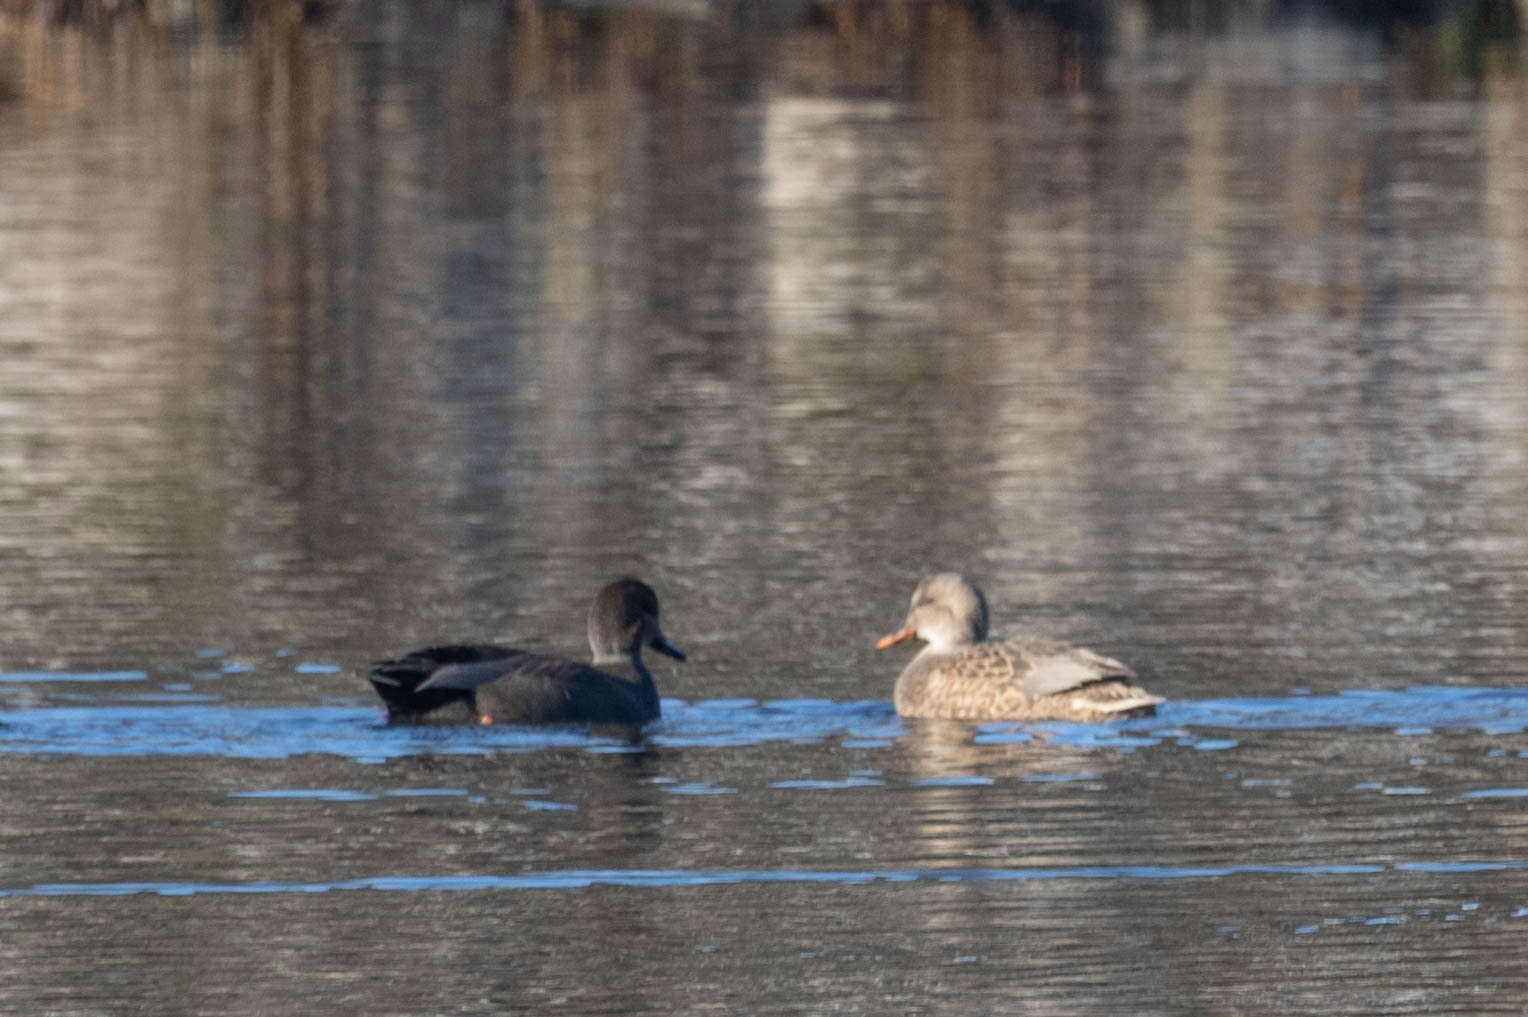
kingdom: Animalia
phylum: Chordata
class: Aves
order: Anseriformes
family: Anatidae
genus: Mareca
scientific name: Mareca strepera
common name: Gadwall
